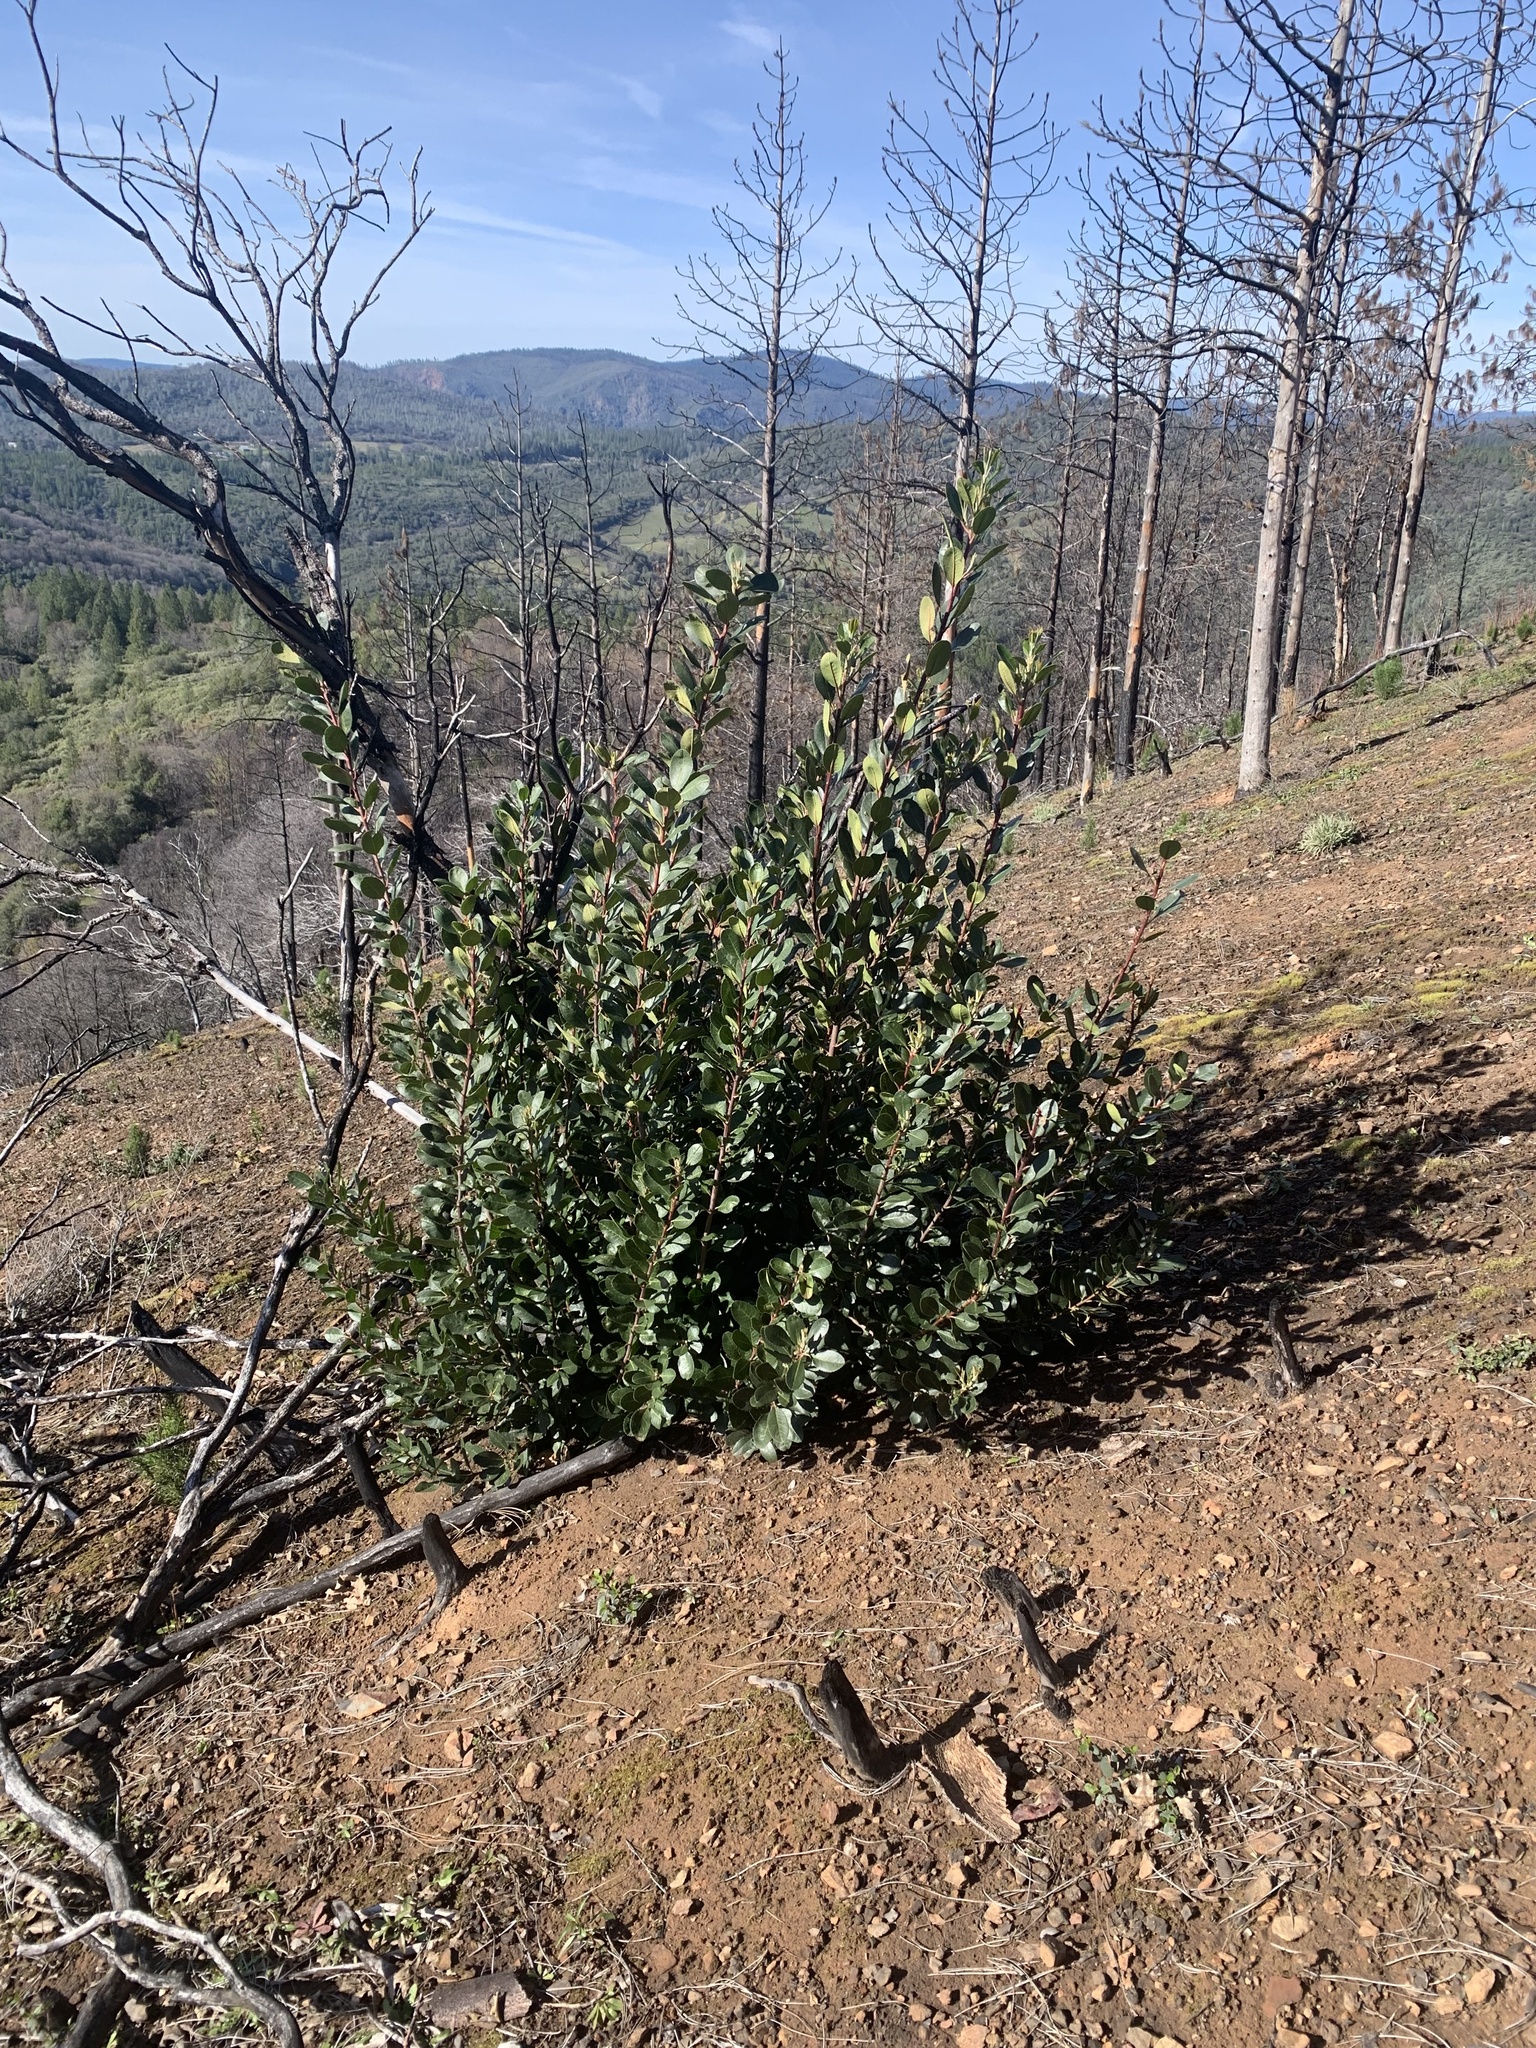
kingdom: Plantae
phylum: Tracheophyta
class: Magnoliopsida
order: Rosales
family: Rosaceae
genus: Heteromeles
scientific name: Heteromeles arbutifolia
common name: California-holly
